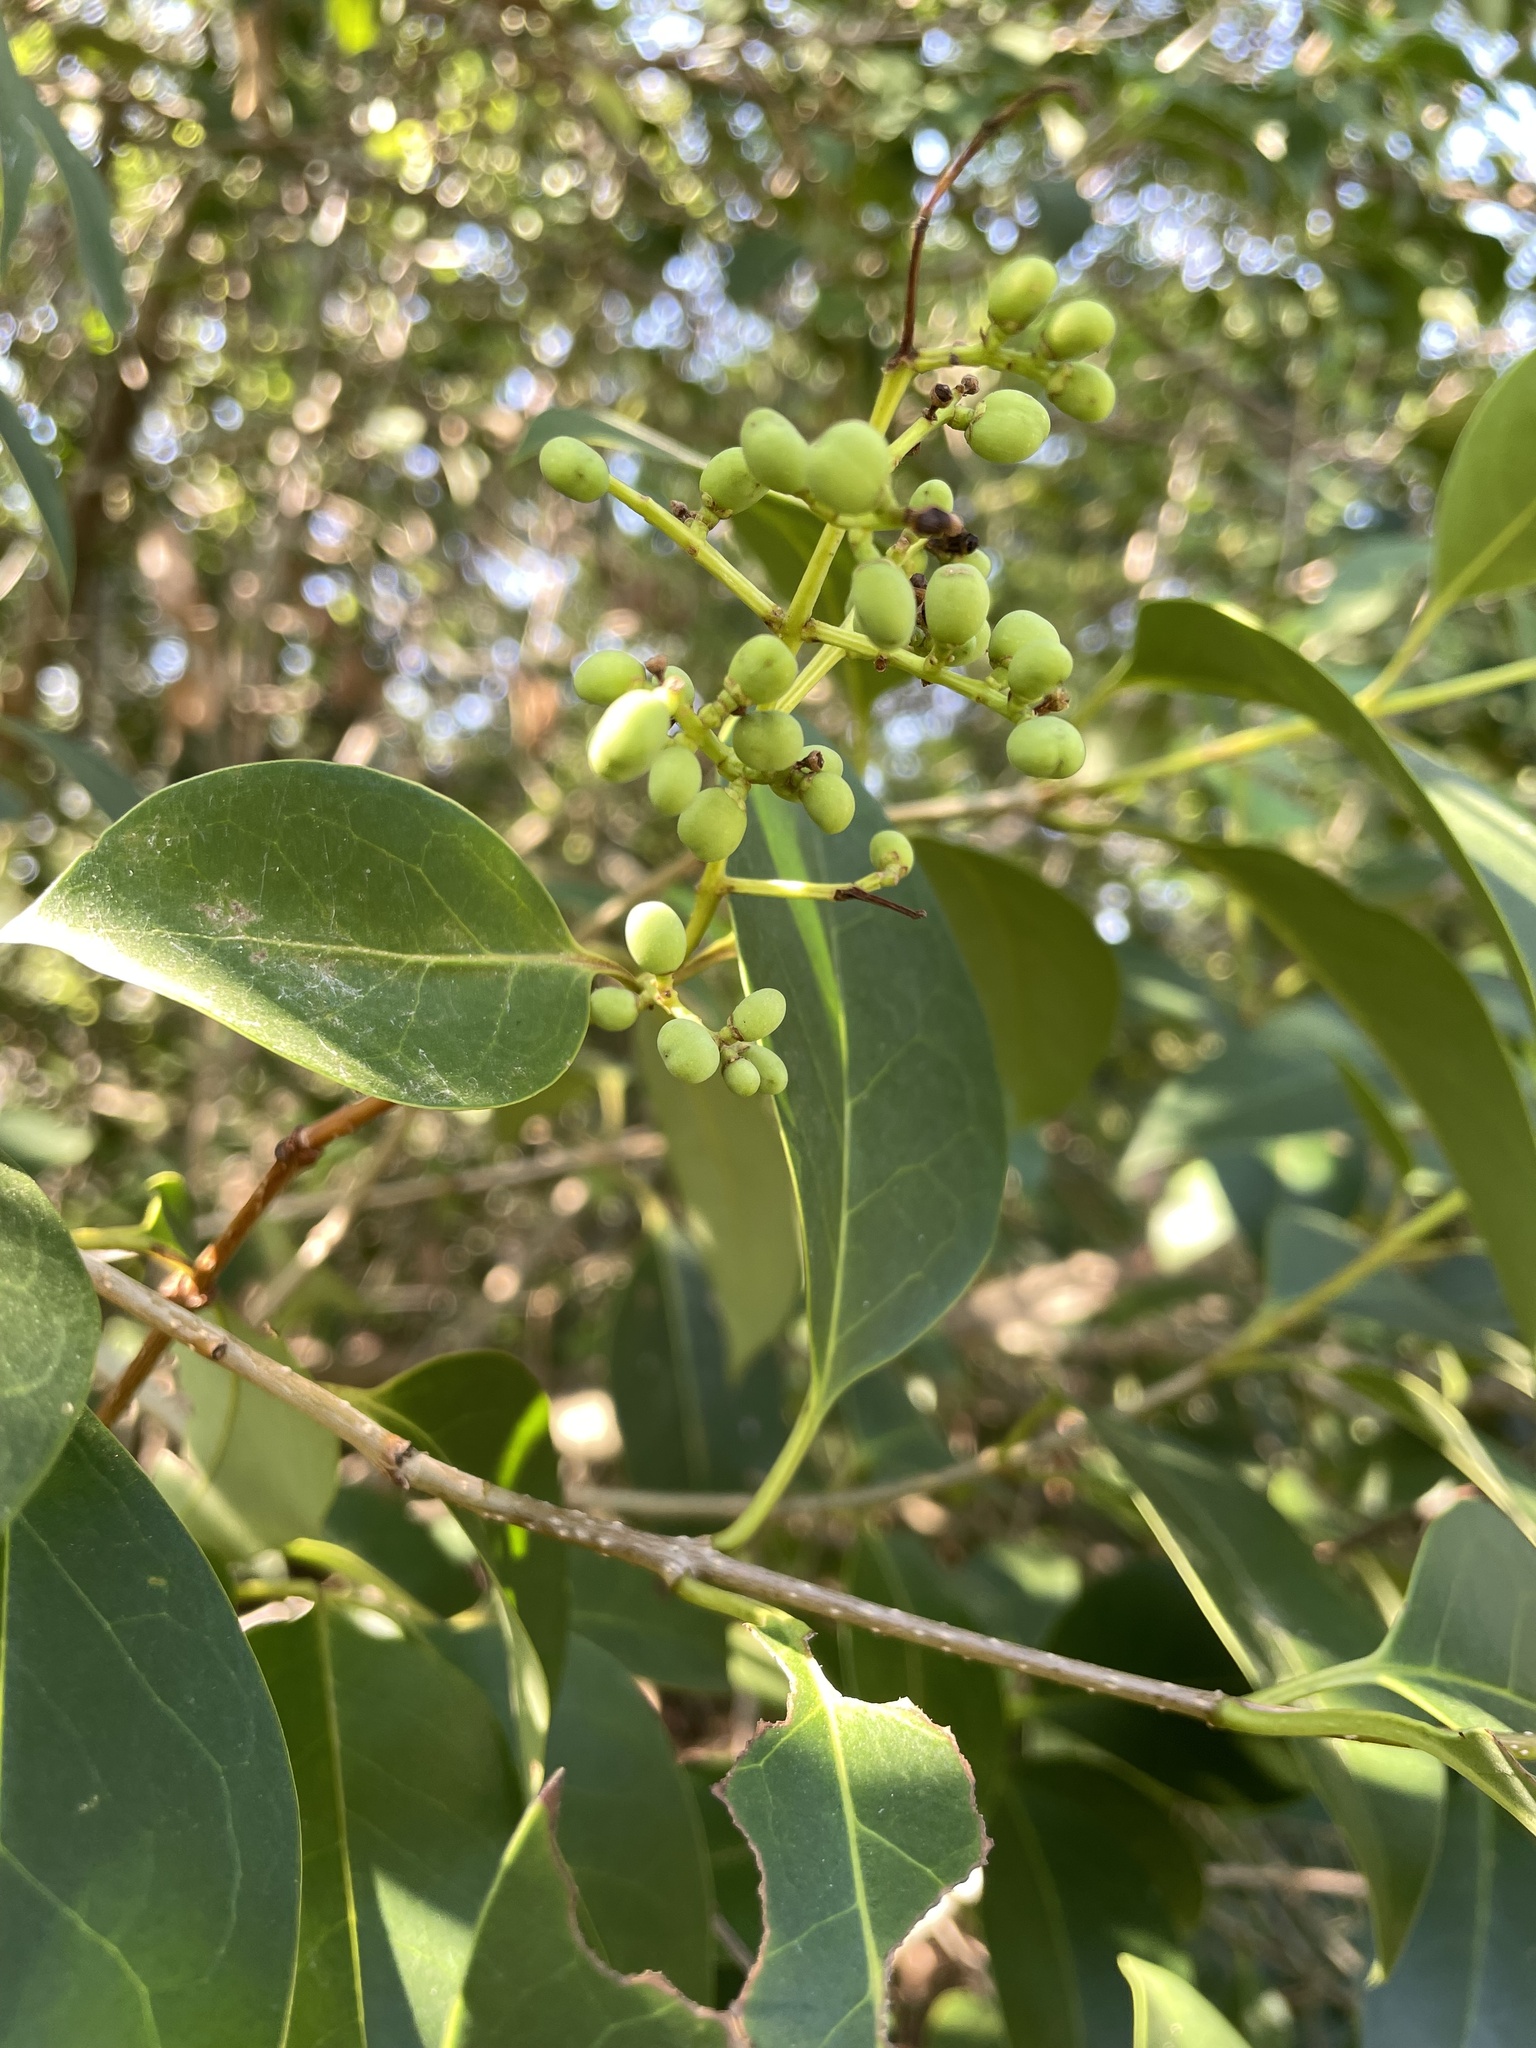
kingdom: Plantae
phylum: Tracheophyta
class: Magnoliopsida
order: Lamiales
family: Oleaceae
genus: Ligustrum
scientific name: Ligustrum lucidum
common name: Glossy privet
